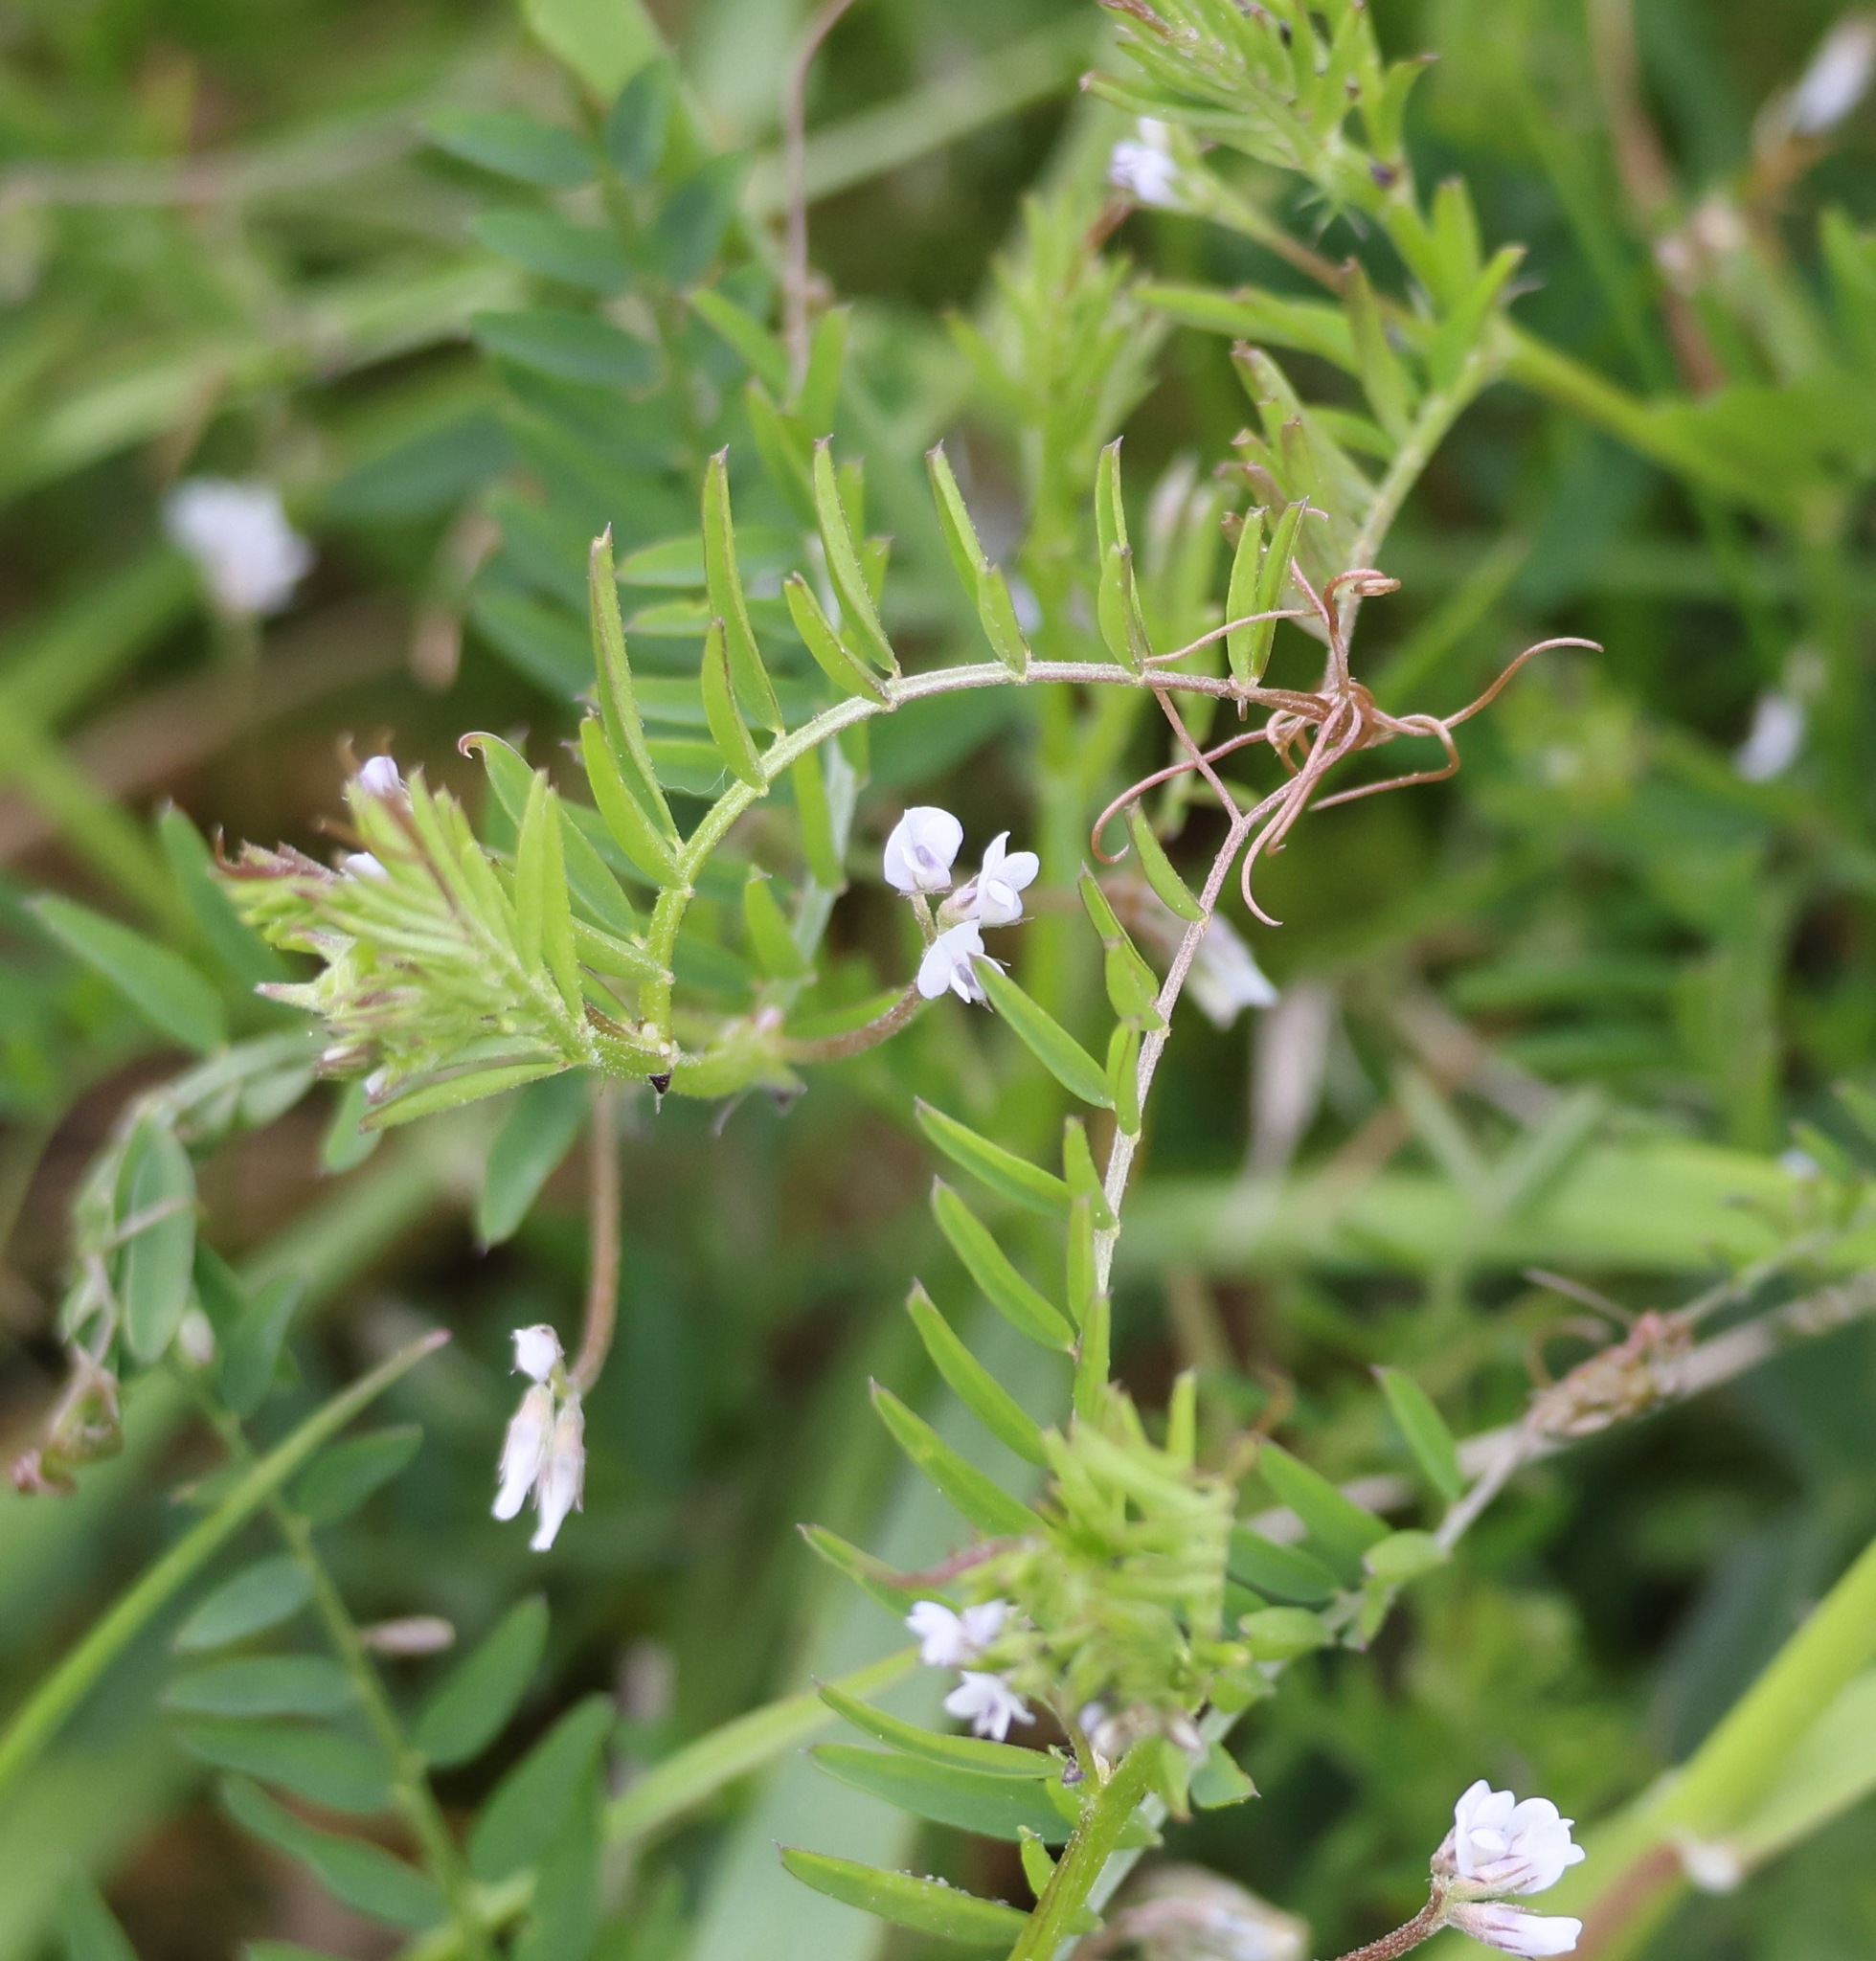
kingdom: Plantae
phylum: Tracheophyta
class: Magnoliopsida
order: Fabales
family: Fabaceae
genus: Vicia
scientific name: Vicia hirsuta
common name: Tiny vetch
